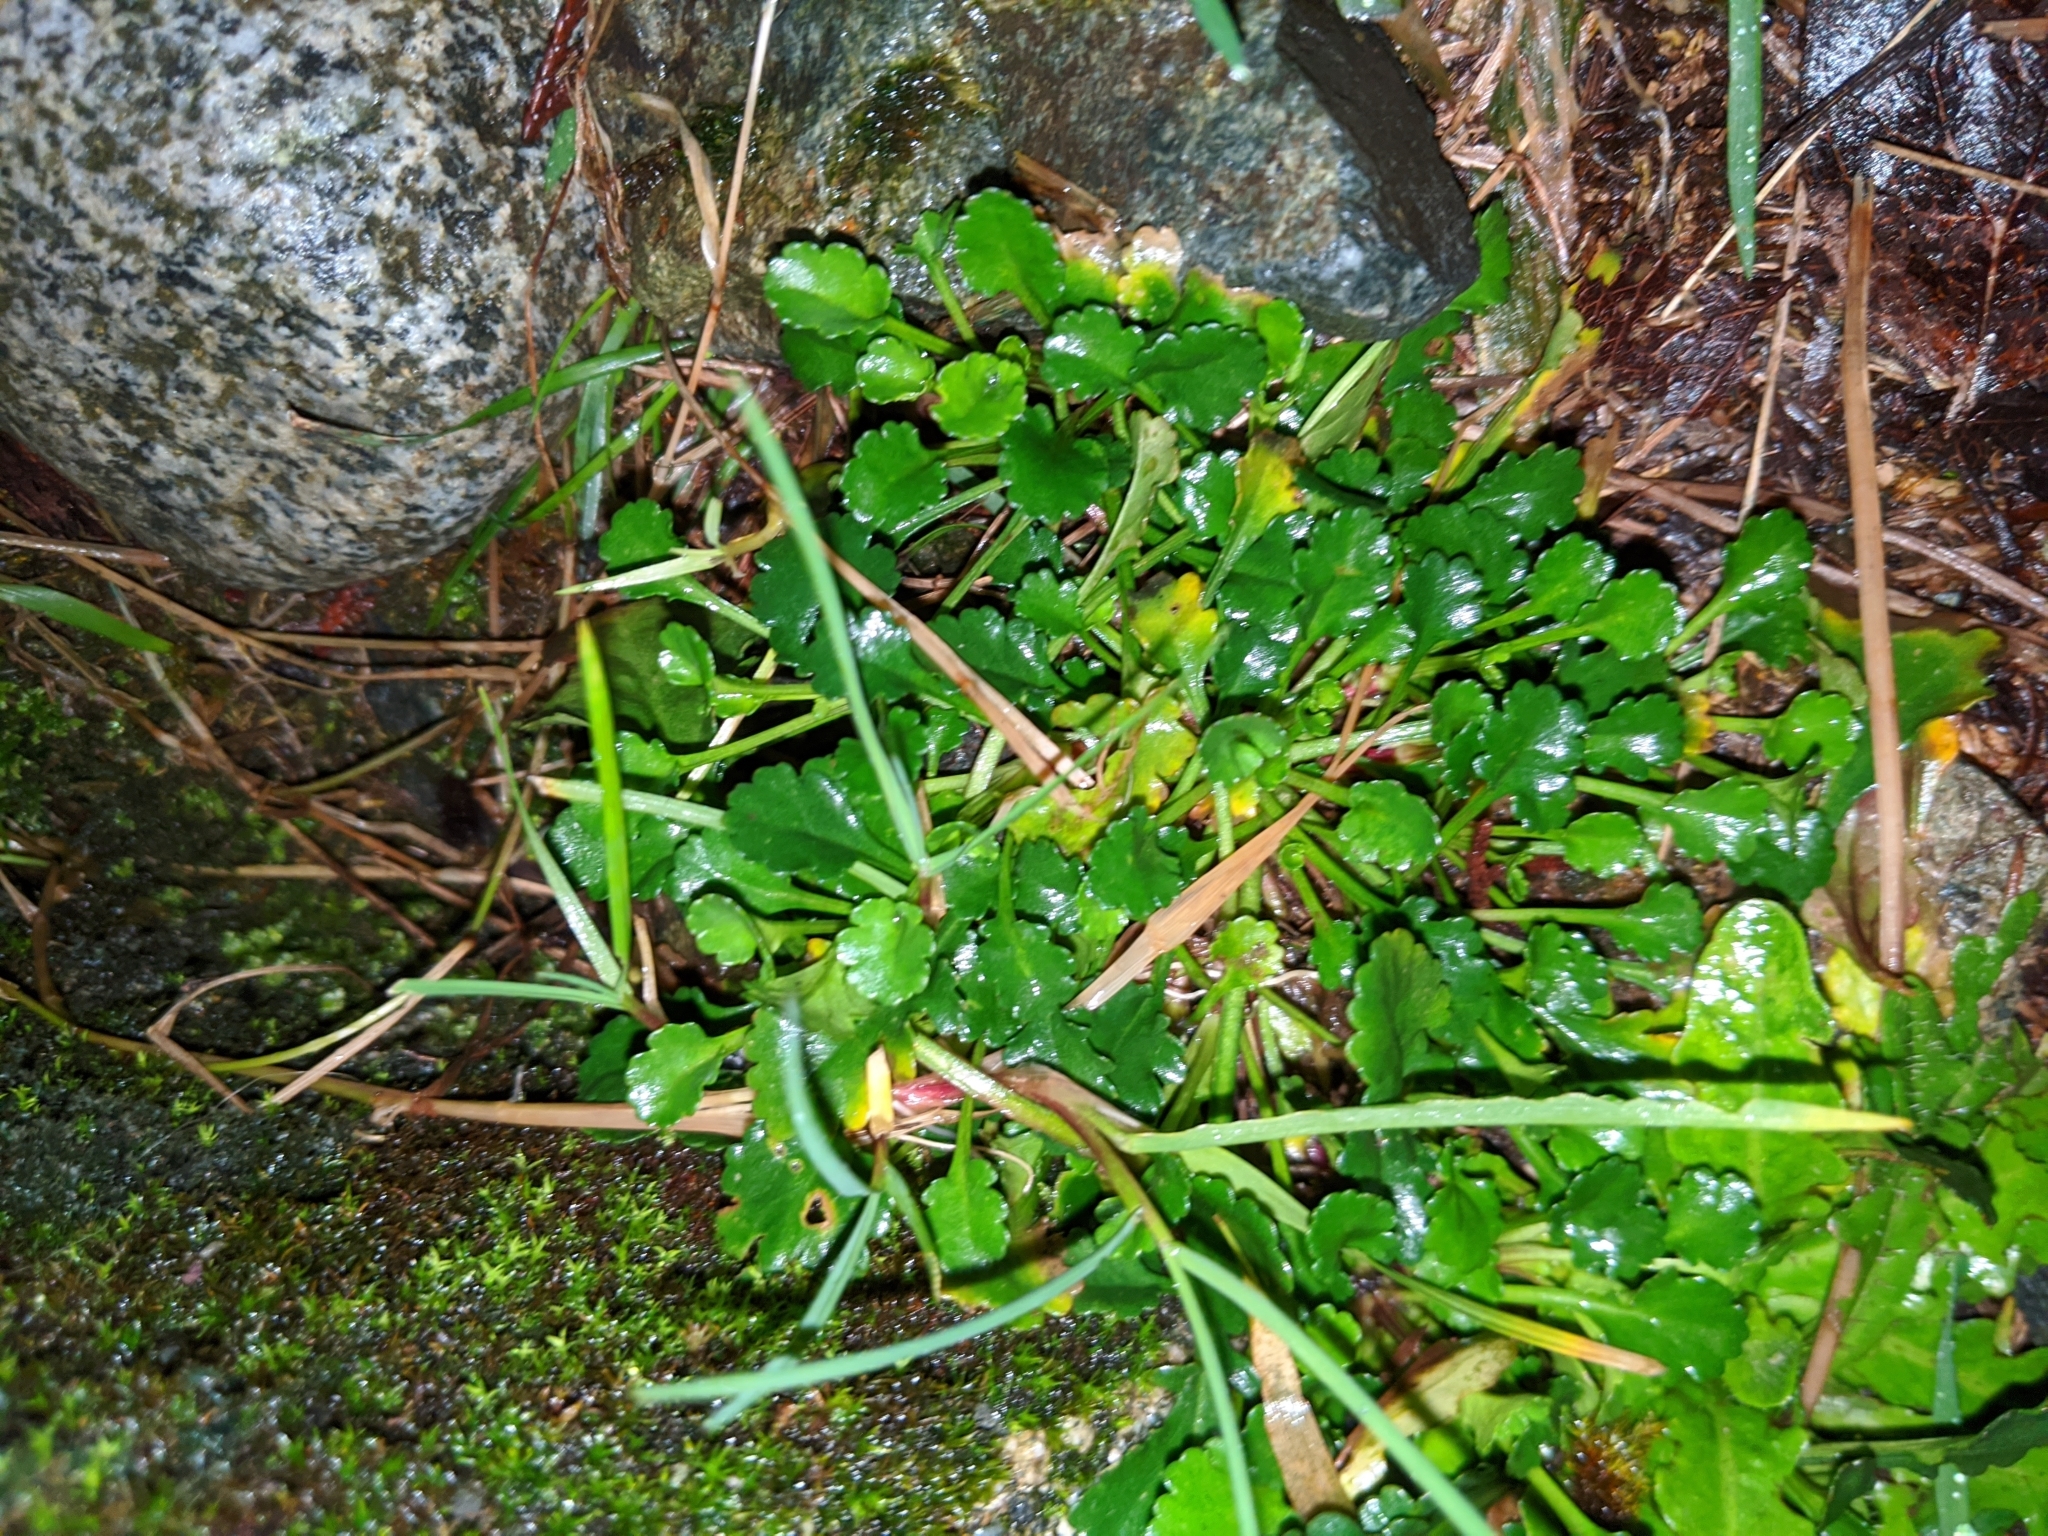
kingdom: Plantae
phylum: Tracheophyta
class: Magnoliopsida
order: Asterales
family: Asteraceae
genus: Leucanthemum
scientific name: Leucanthemum vulgare
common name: Oxeye daisy
